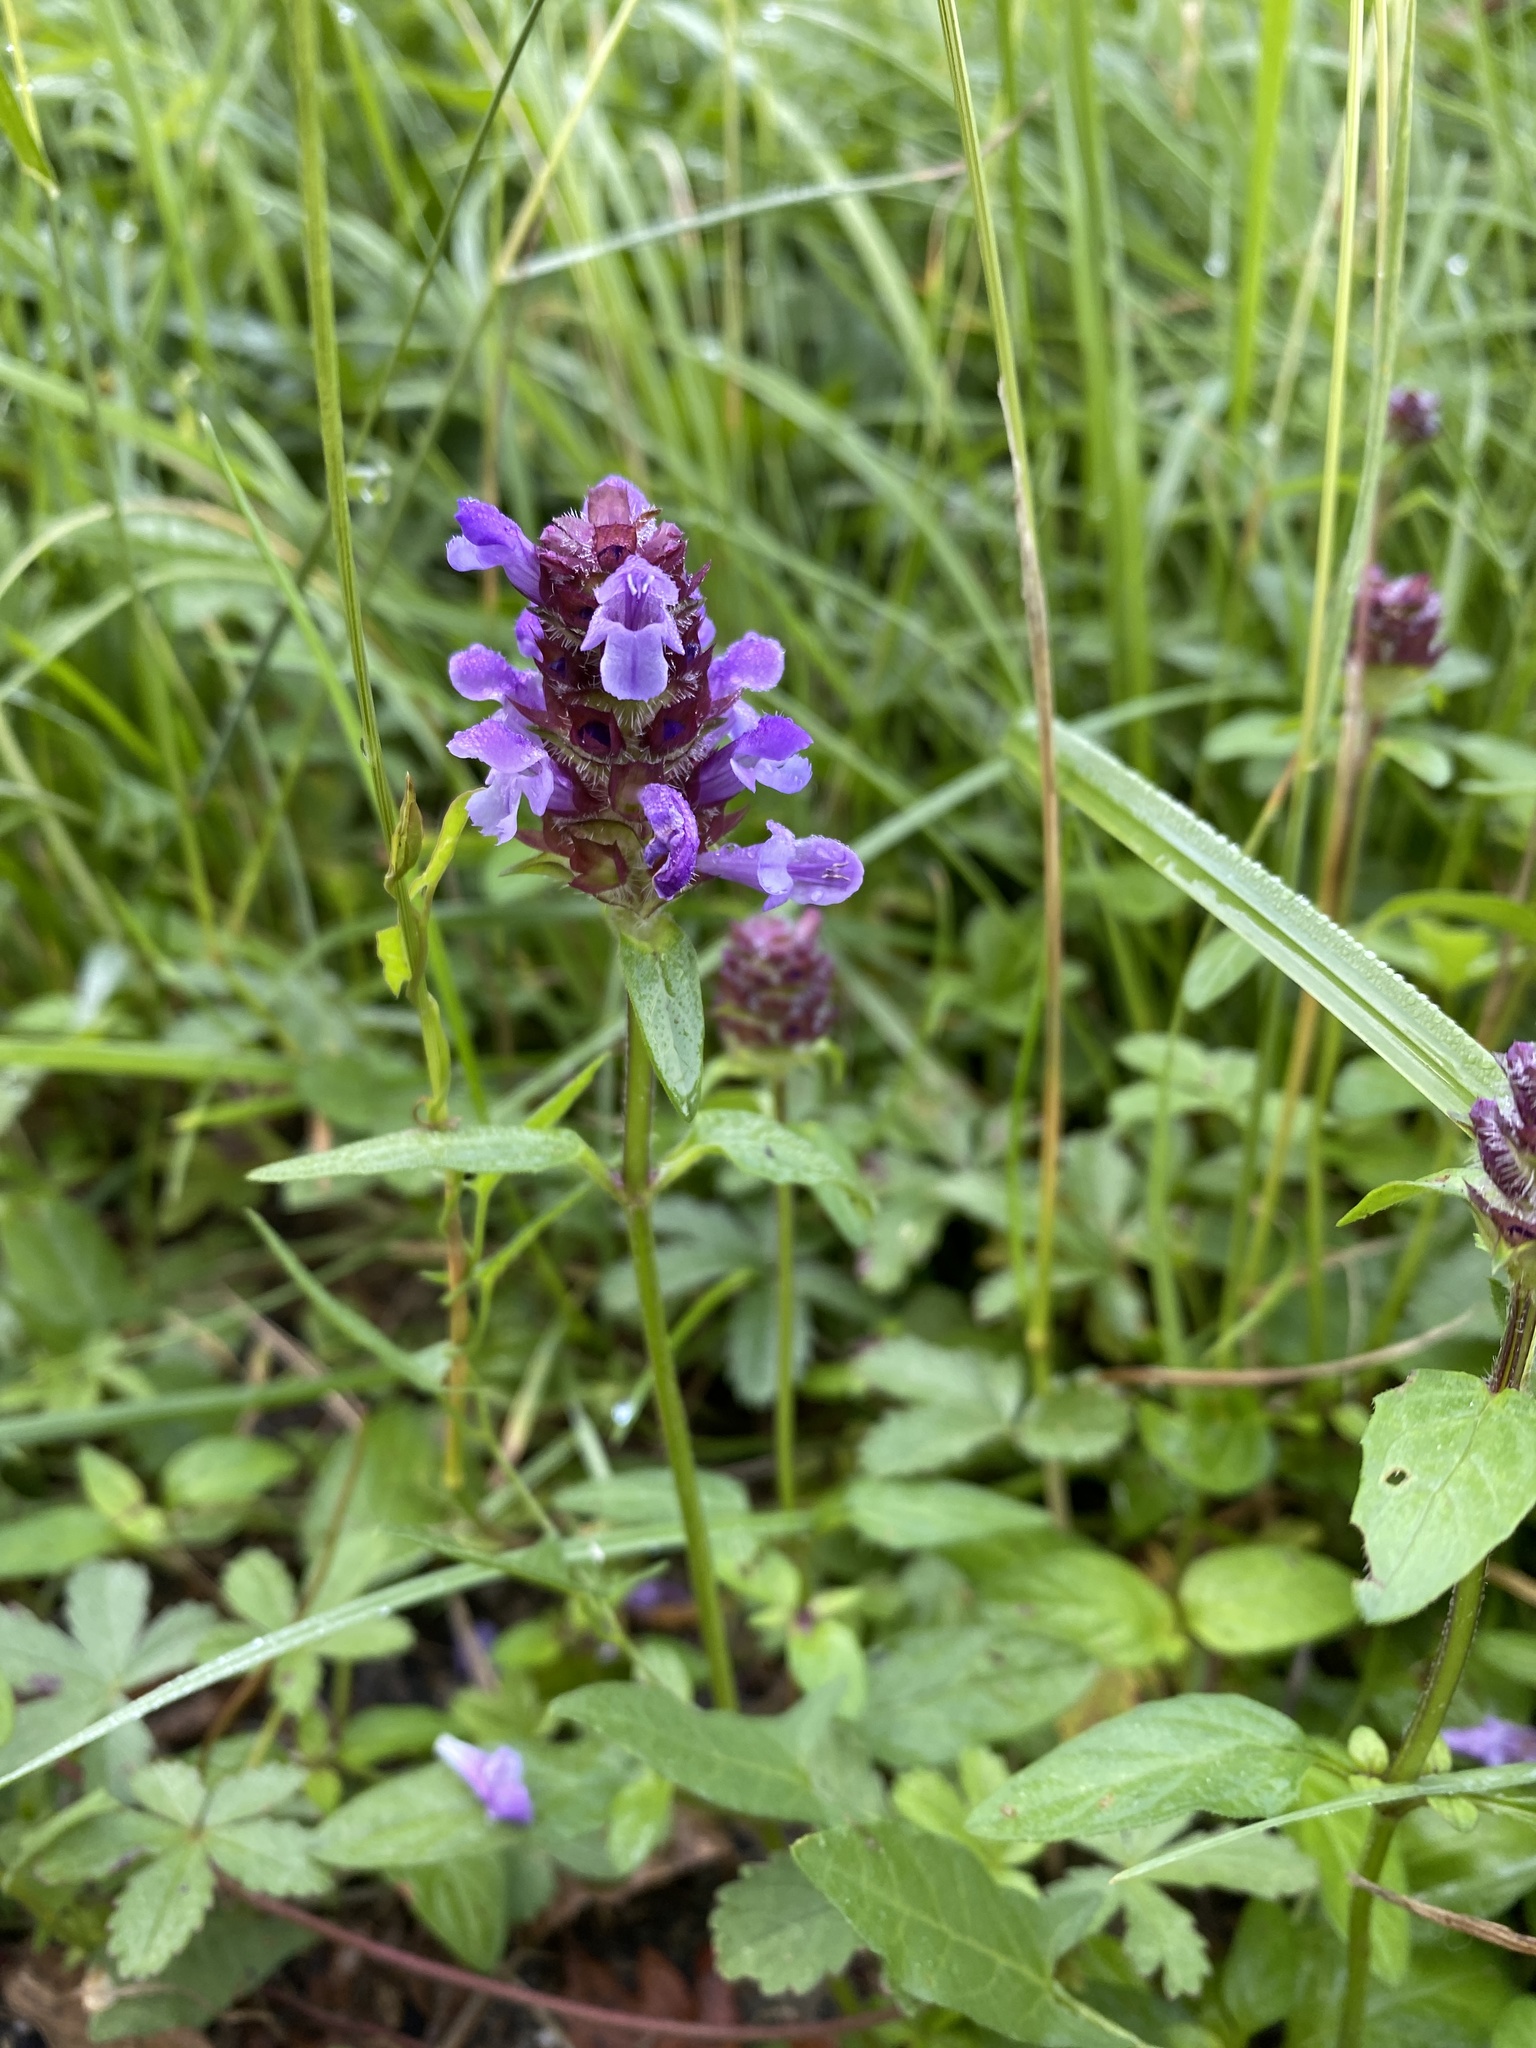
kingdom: Plantae
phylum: Tracheophyta
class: Magnoliopsida
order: Lamiales
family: Lamiaceae
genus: Prunella
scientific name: Prunella vulgaris
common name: Heal-all
